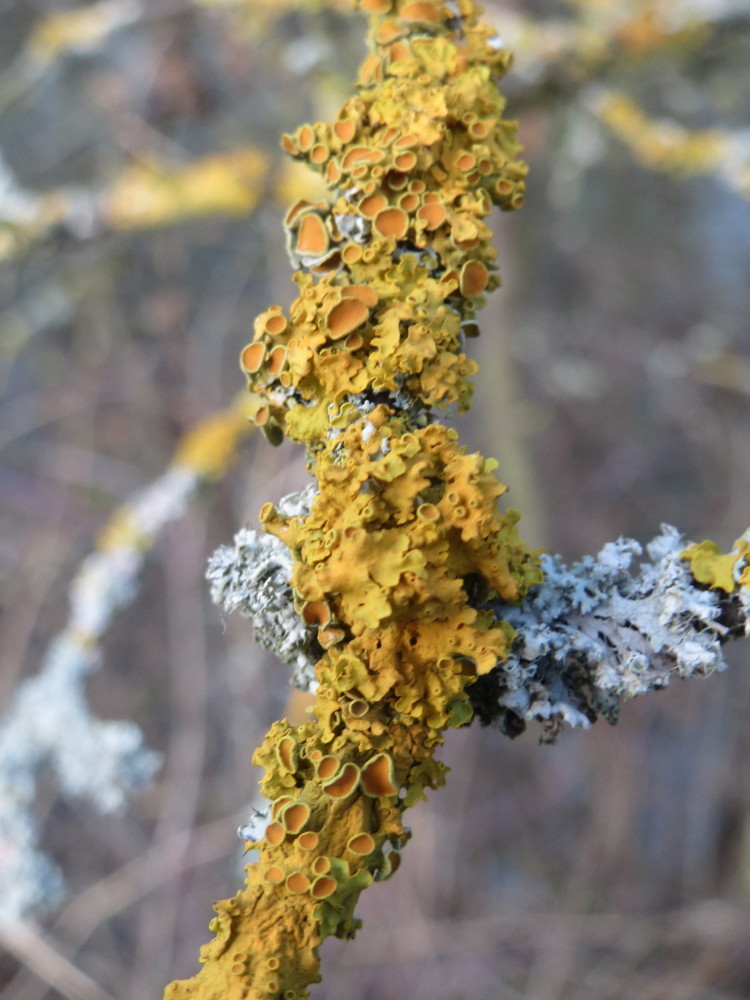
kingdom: Fungi
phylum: Ascomycota
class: Lecanoromycetes
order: Teloschistales
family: Teloschistaceae
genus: Xanthoria
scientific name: Xanthoria parietina
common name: Common orange lichen
